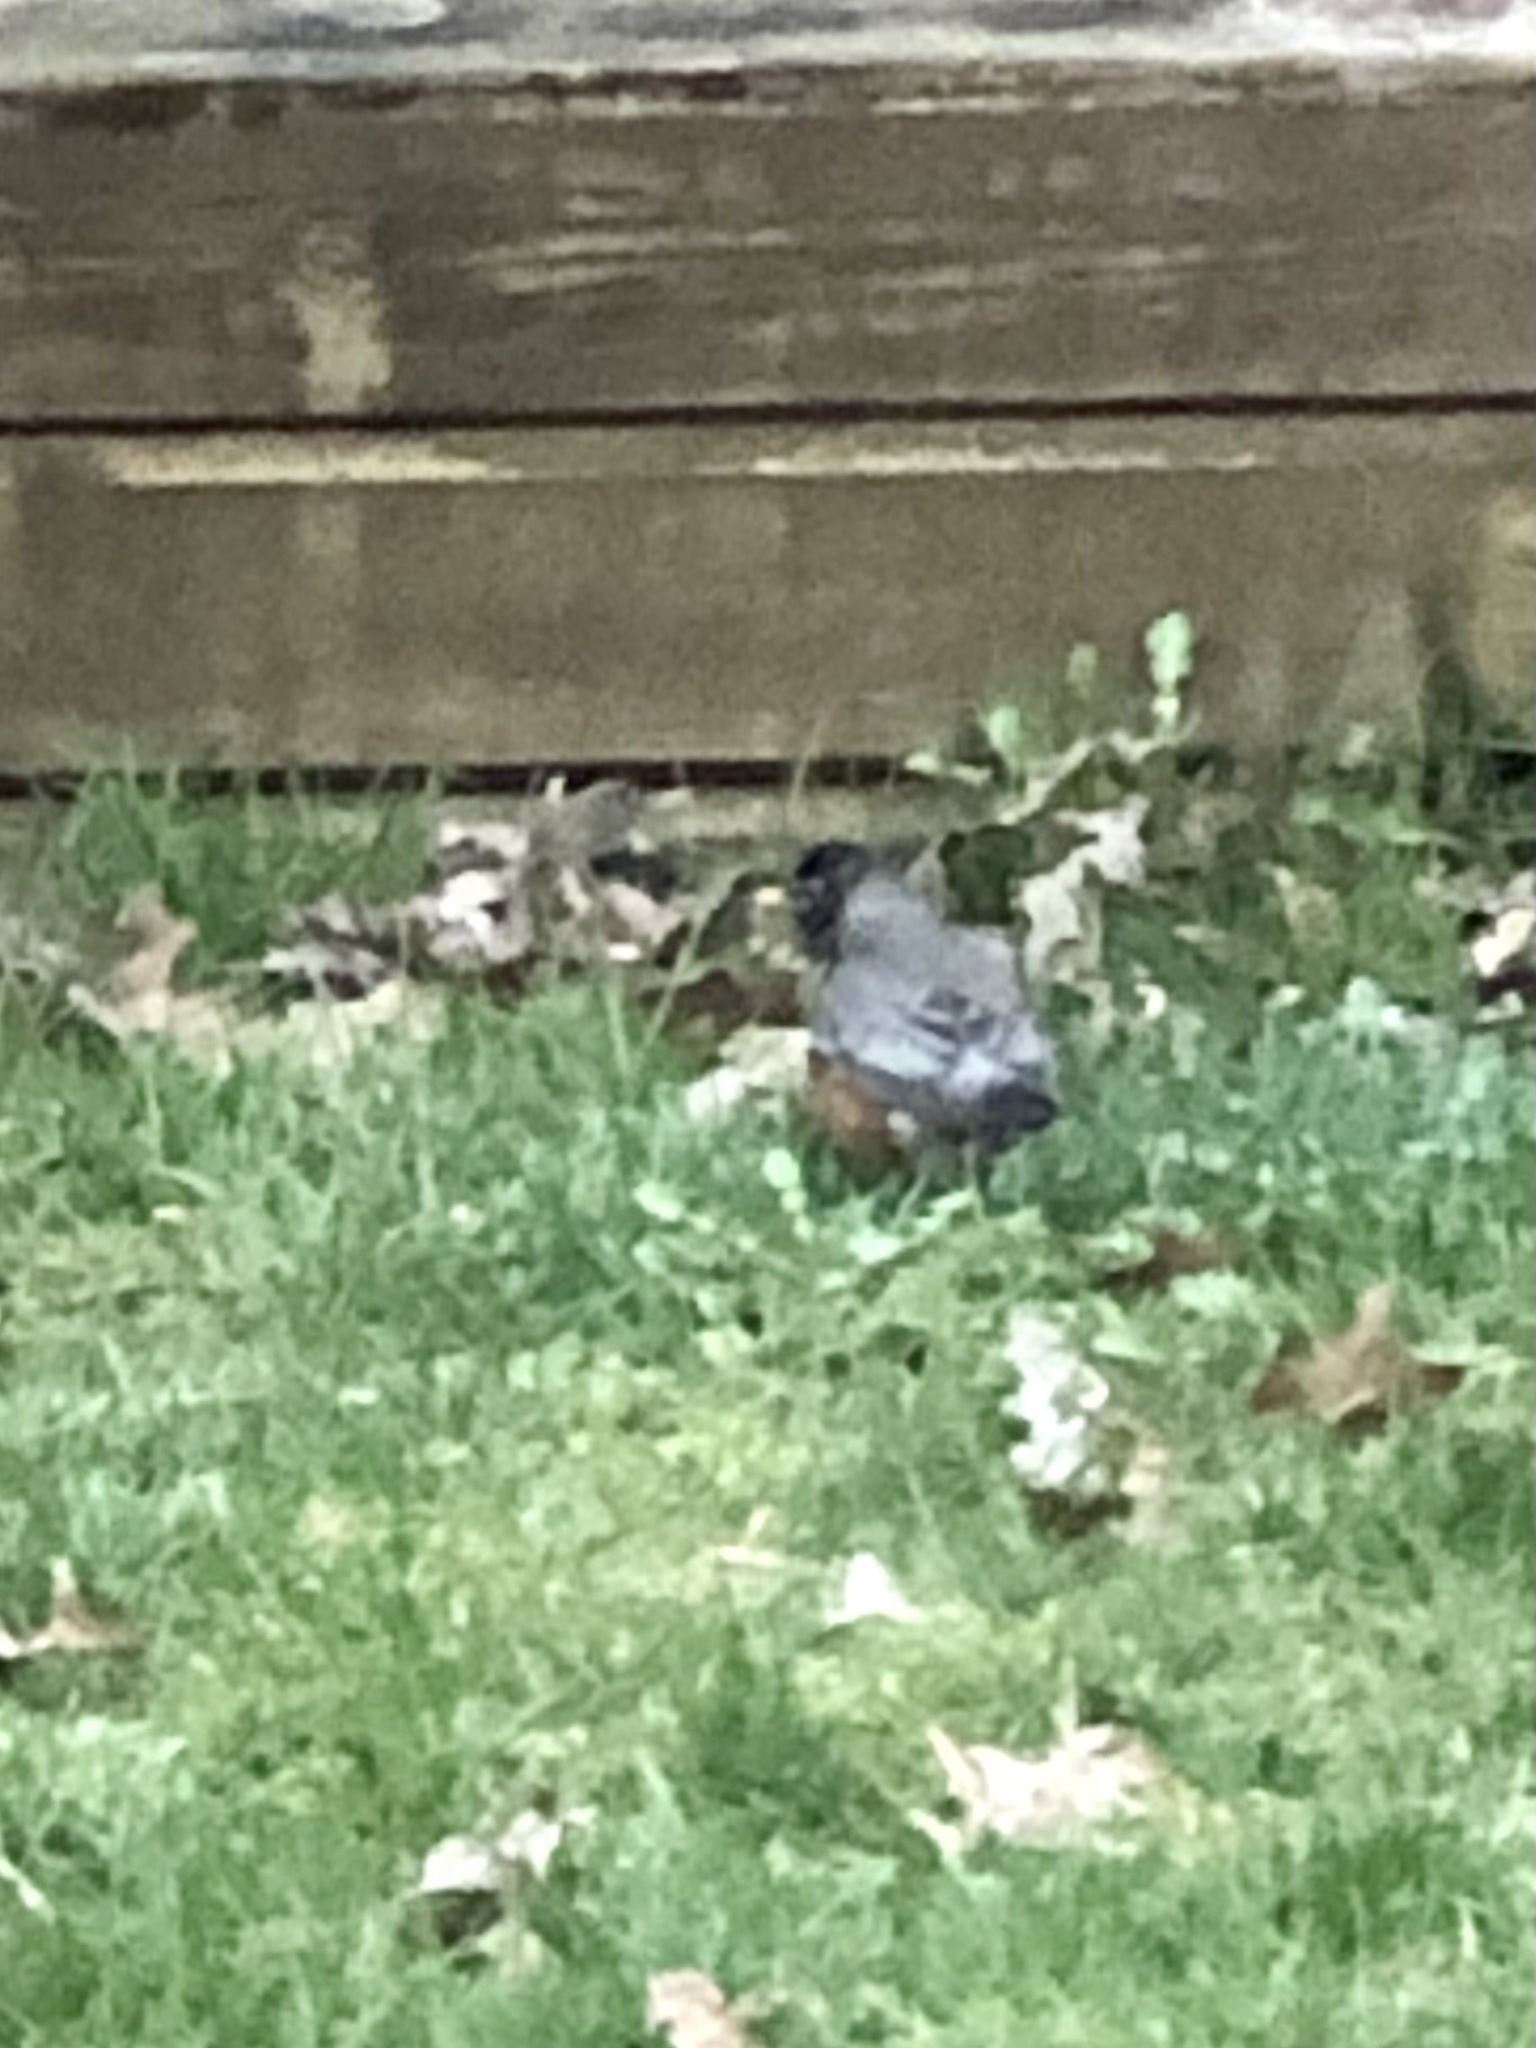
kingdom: Animalia
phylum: Chordata
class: Aves
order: Passeriformes
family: Turdidae
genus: Turdus
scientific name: Turdus migratorius
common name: American robin
